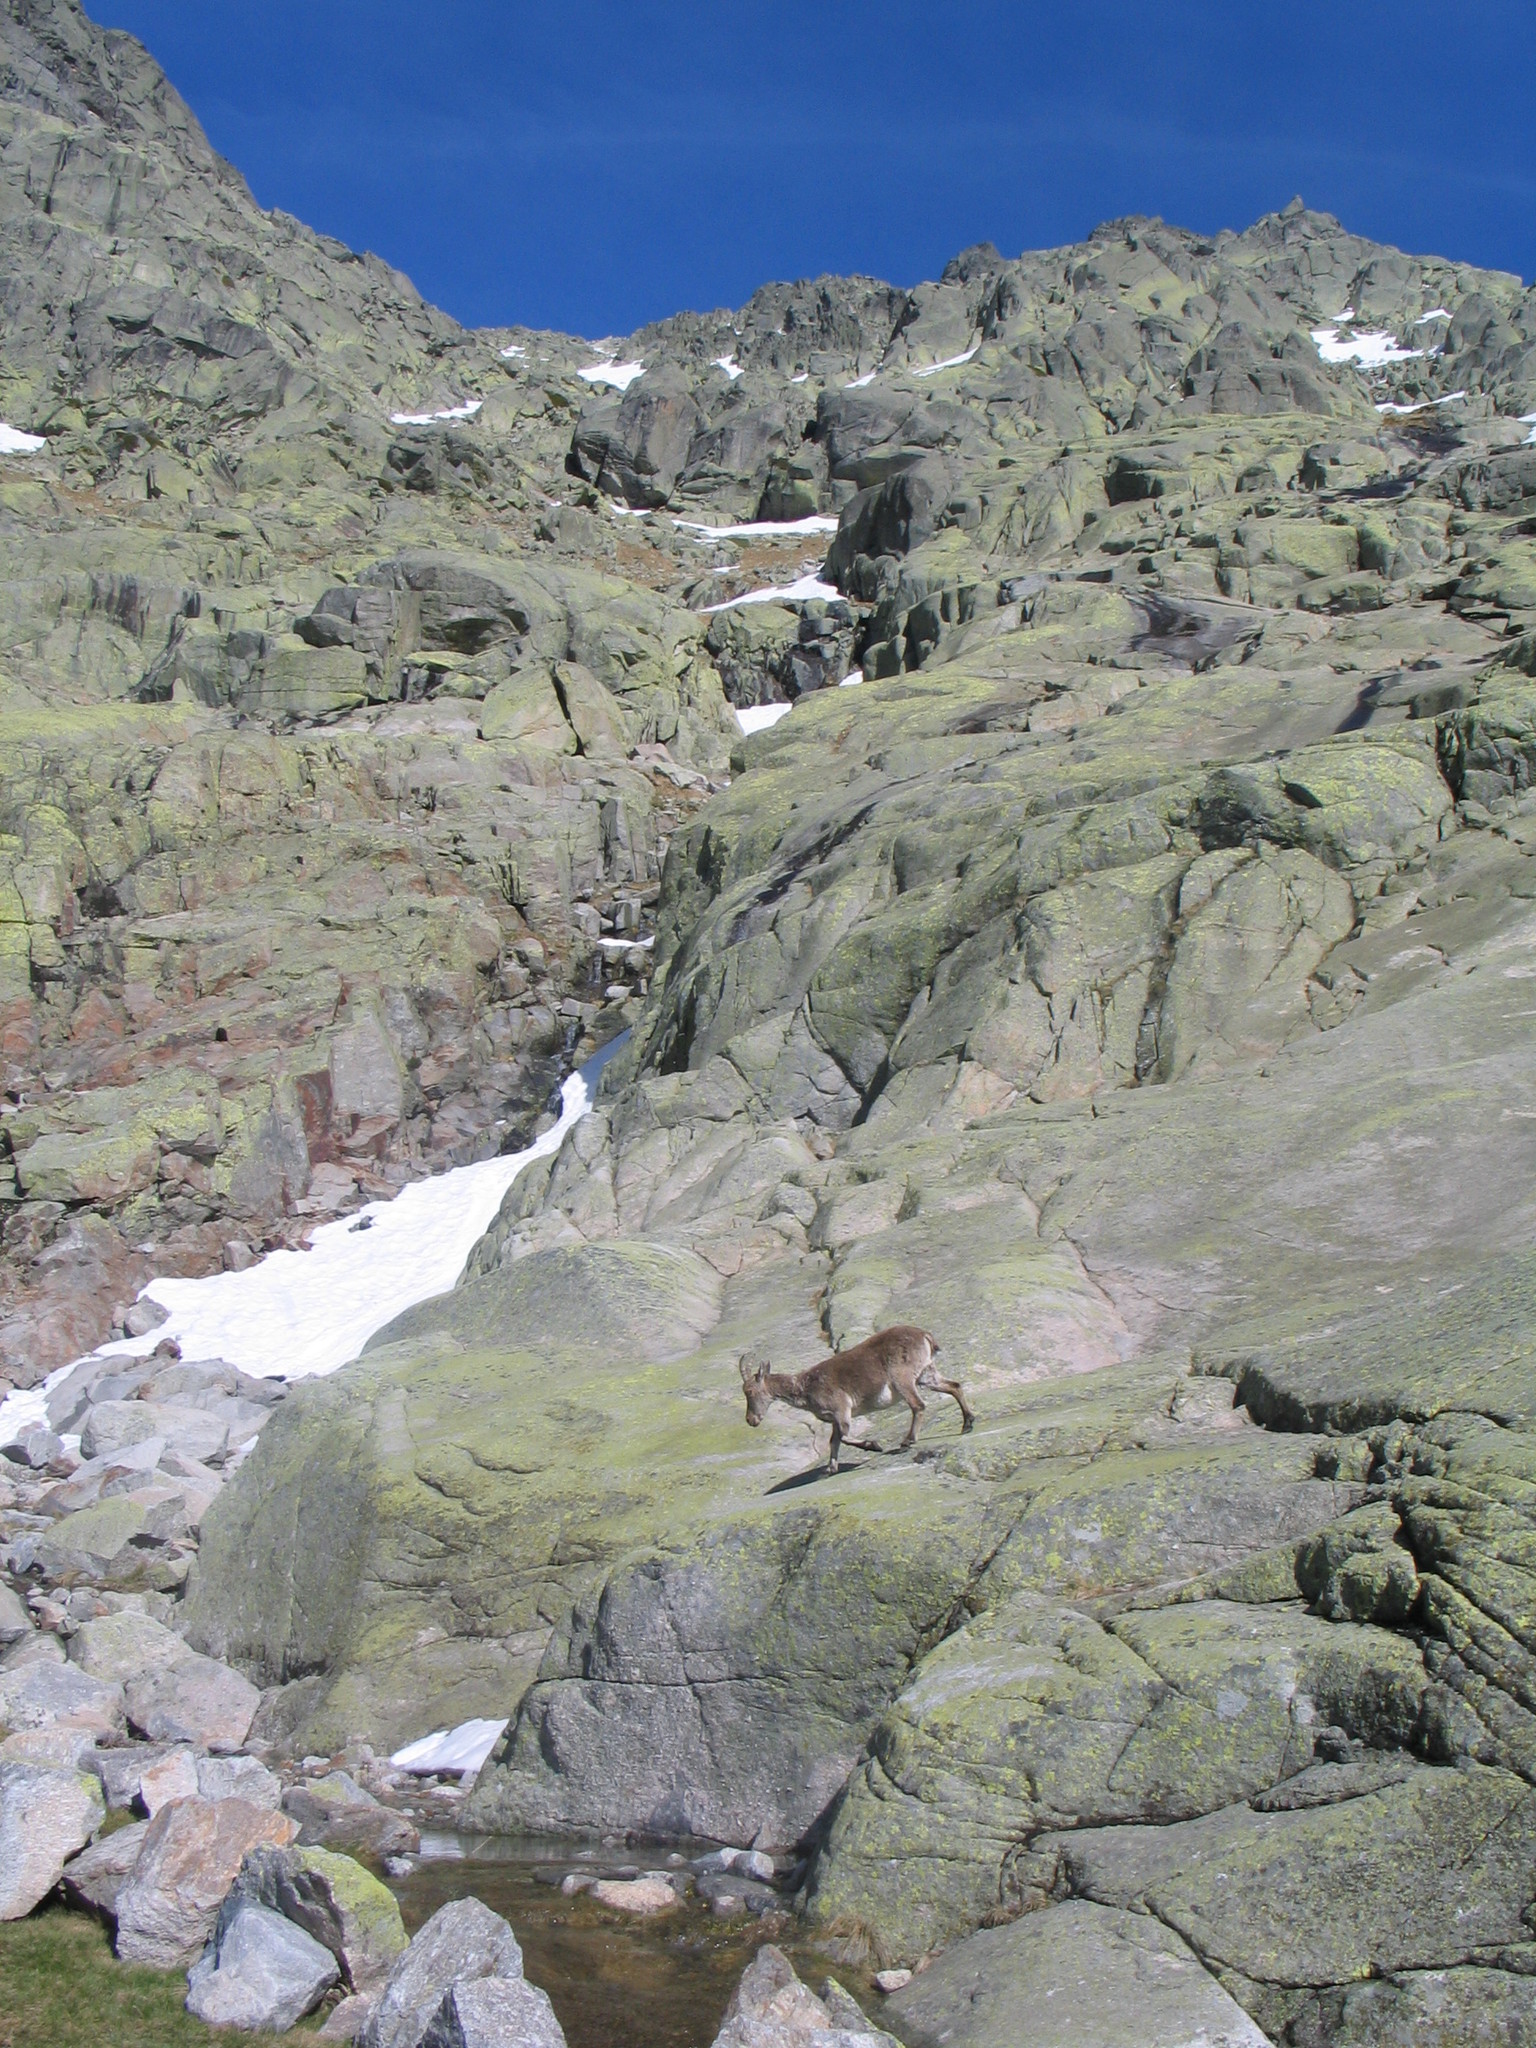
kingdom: Animalia
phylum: Chordata
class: Mammalia
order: Artiodactyla
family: Bovidae
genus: Capra
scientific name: Capra pyrenaica
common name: Spanish ibex
